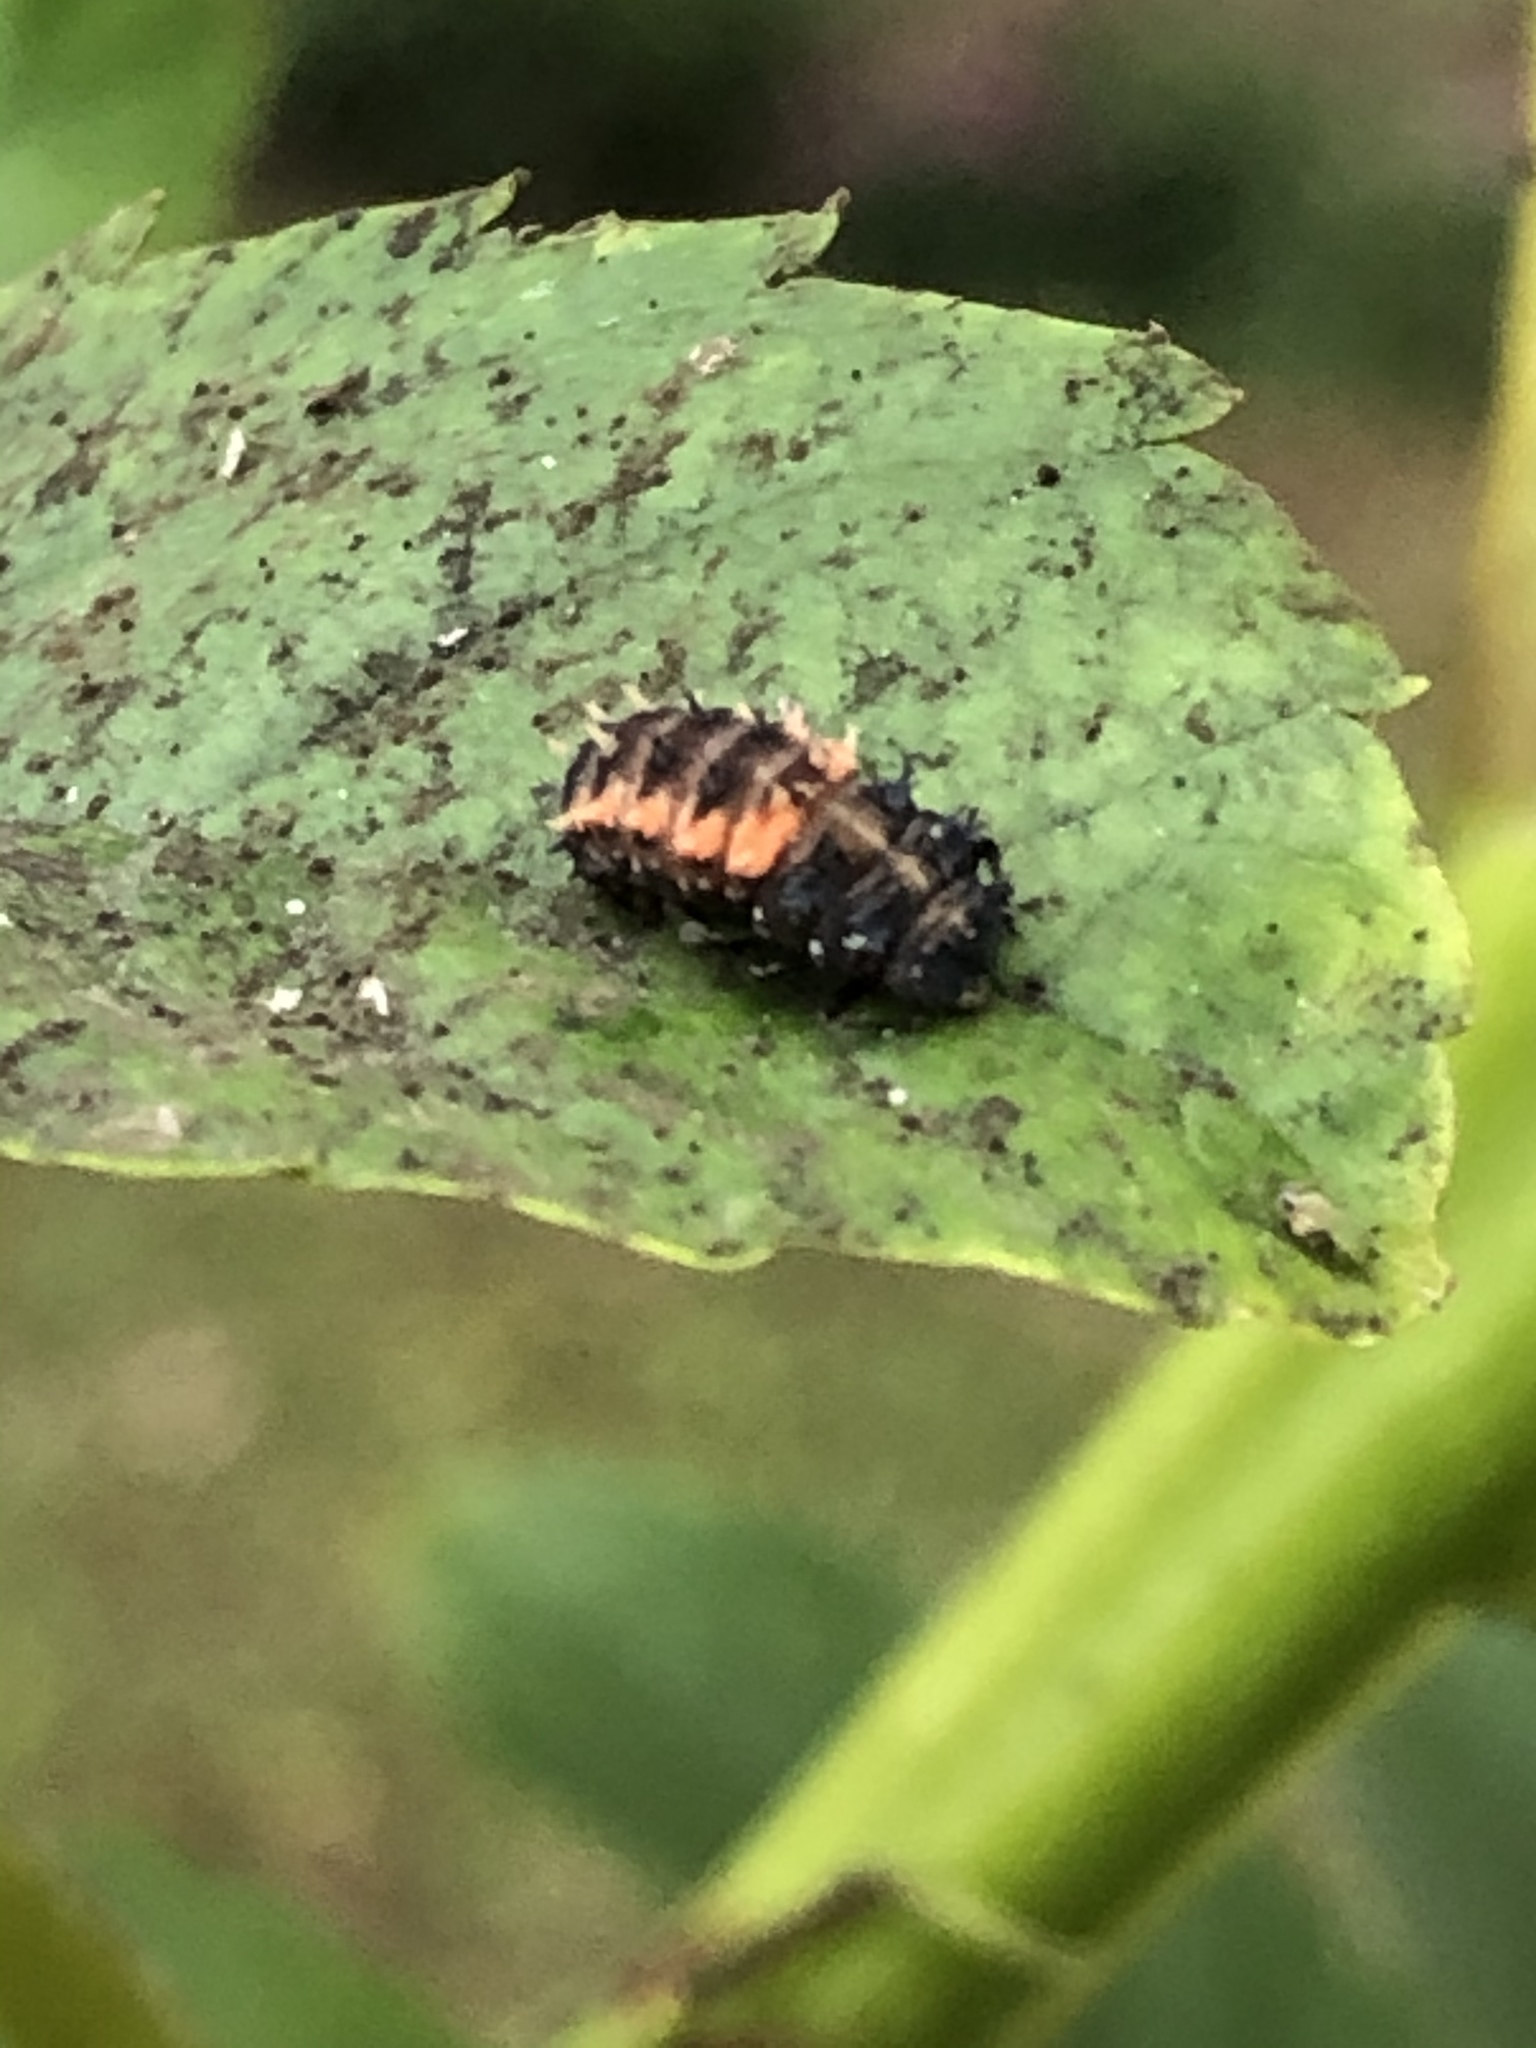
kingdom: Animalia
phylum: Arthropoda
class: Insecta
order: Coleoptera
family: Coccinellidae
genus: Harmonia
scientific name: Harmonia axyridis
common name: Harlequin ladybird
